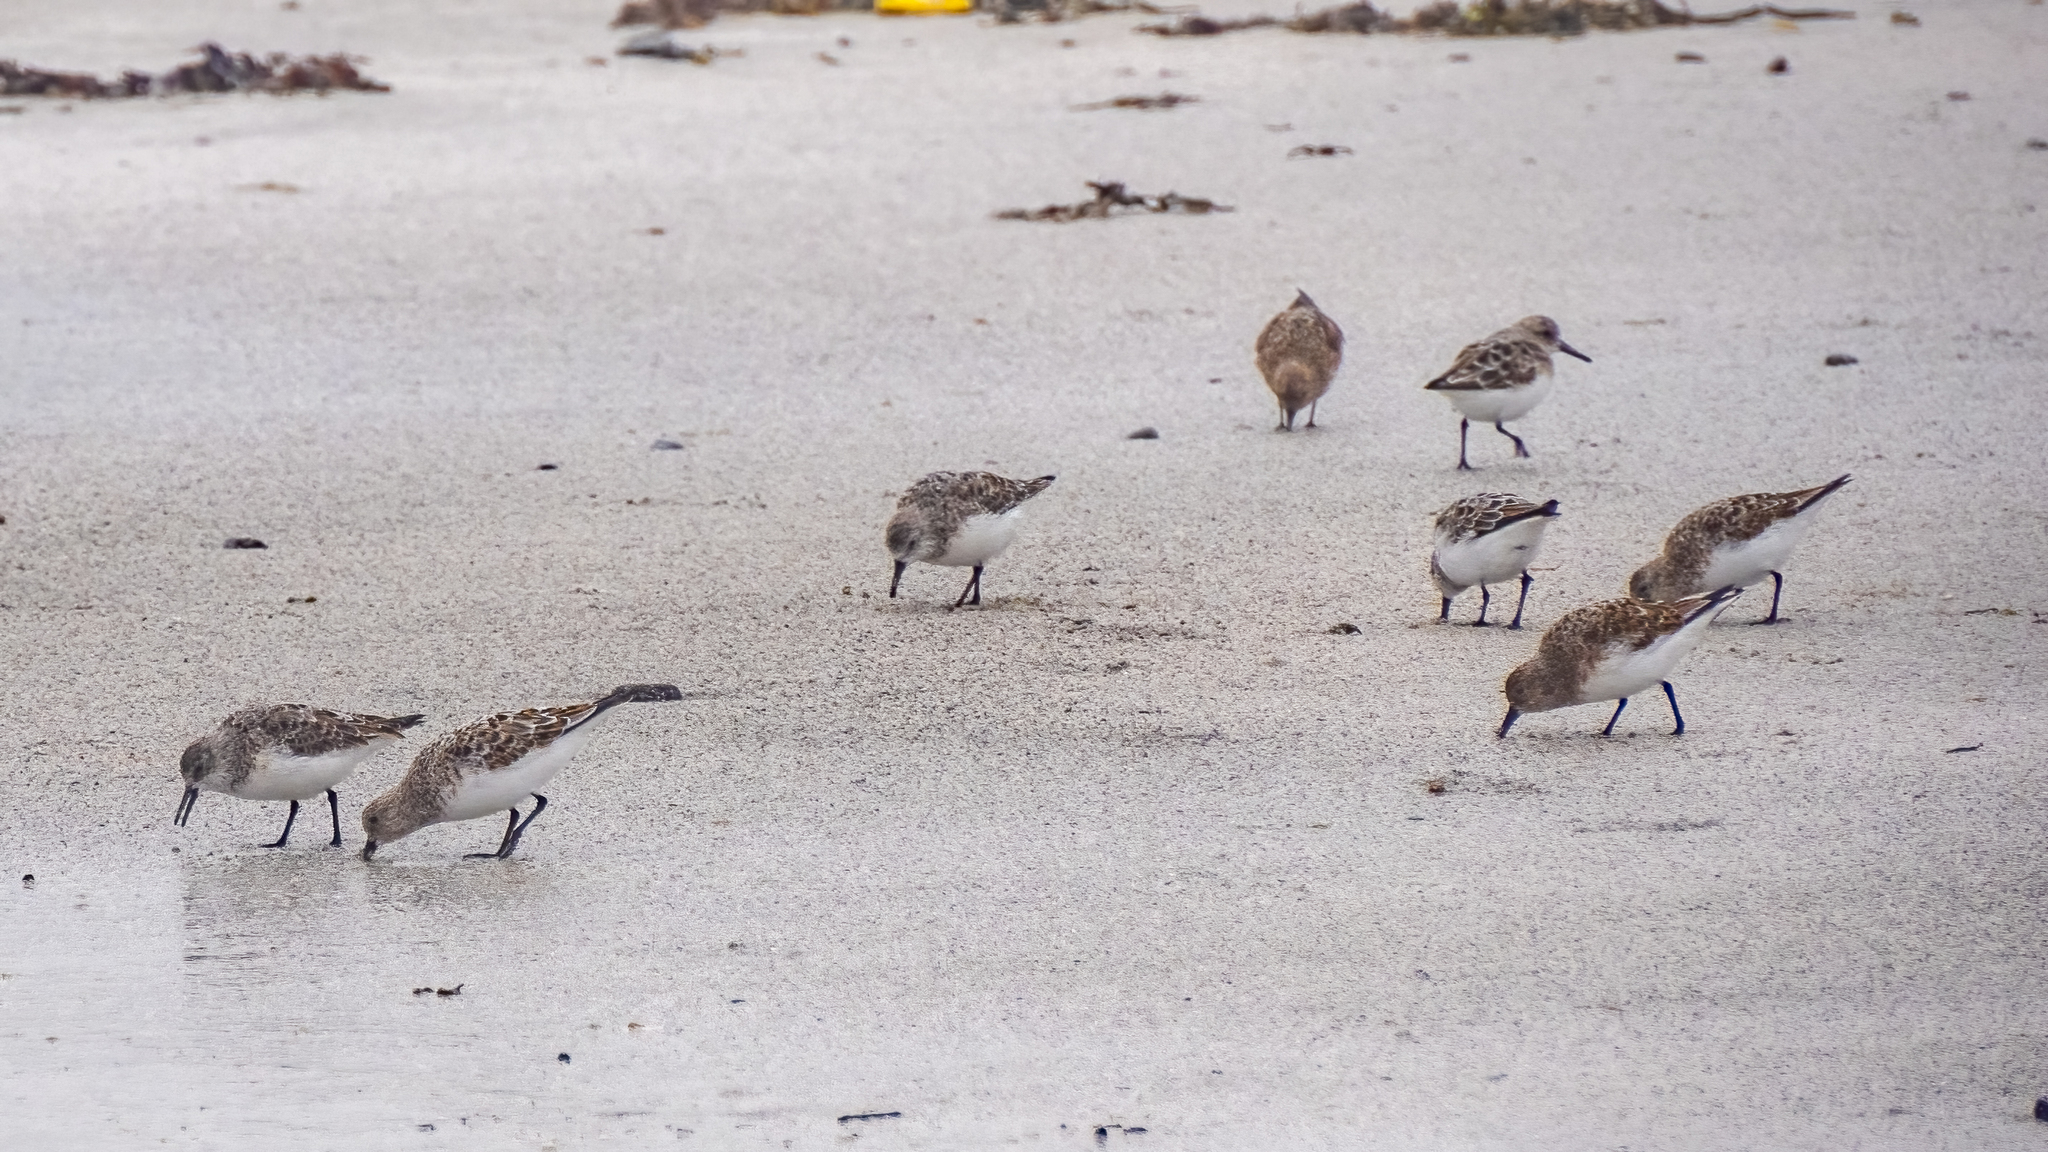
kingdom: Animalia
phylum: Chordata
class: Aves
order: Charadriiformes
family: Scolopacidae
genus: Calidris
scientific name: Calidris alba
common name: Sanderling
